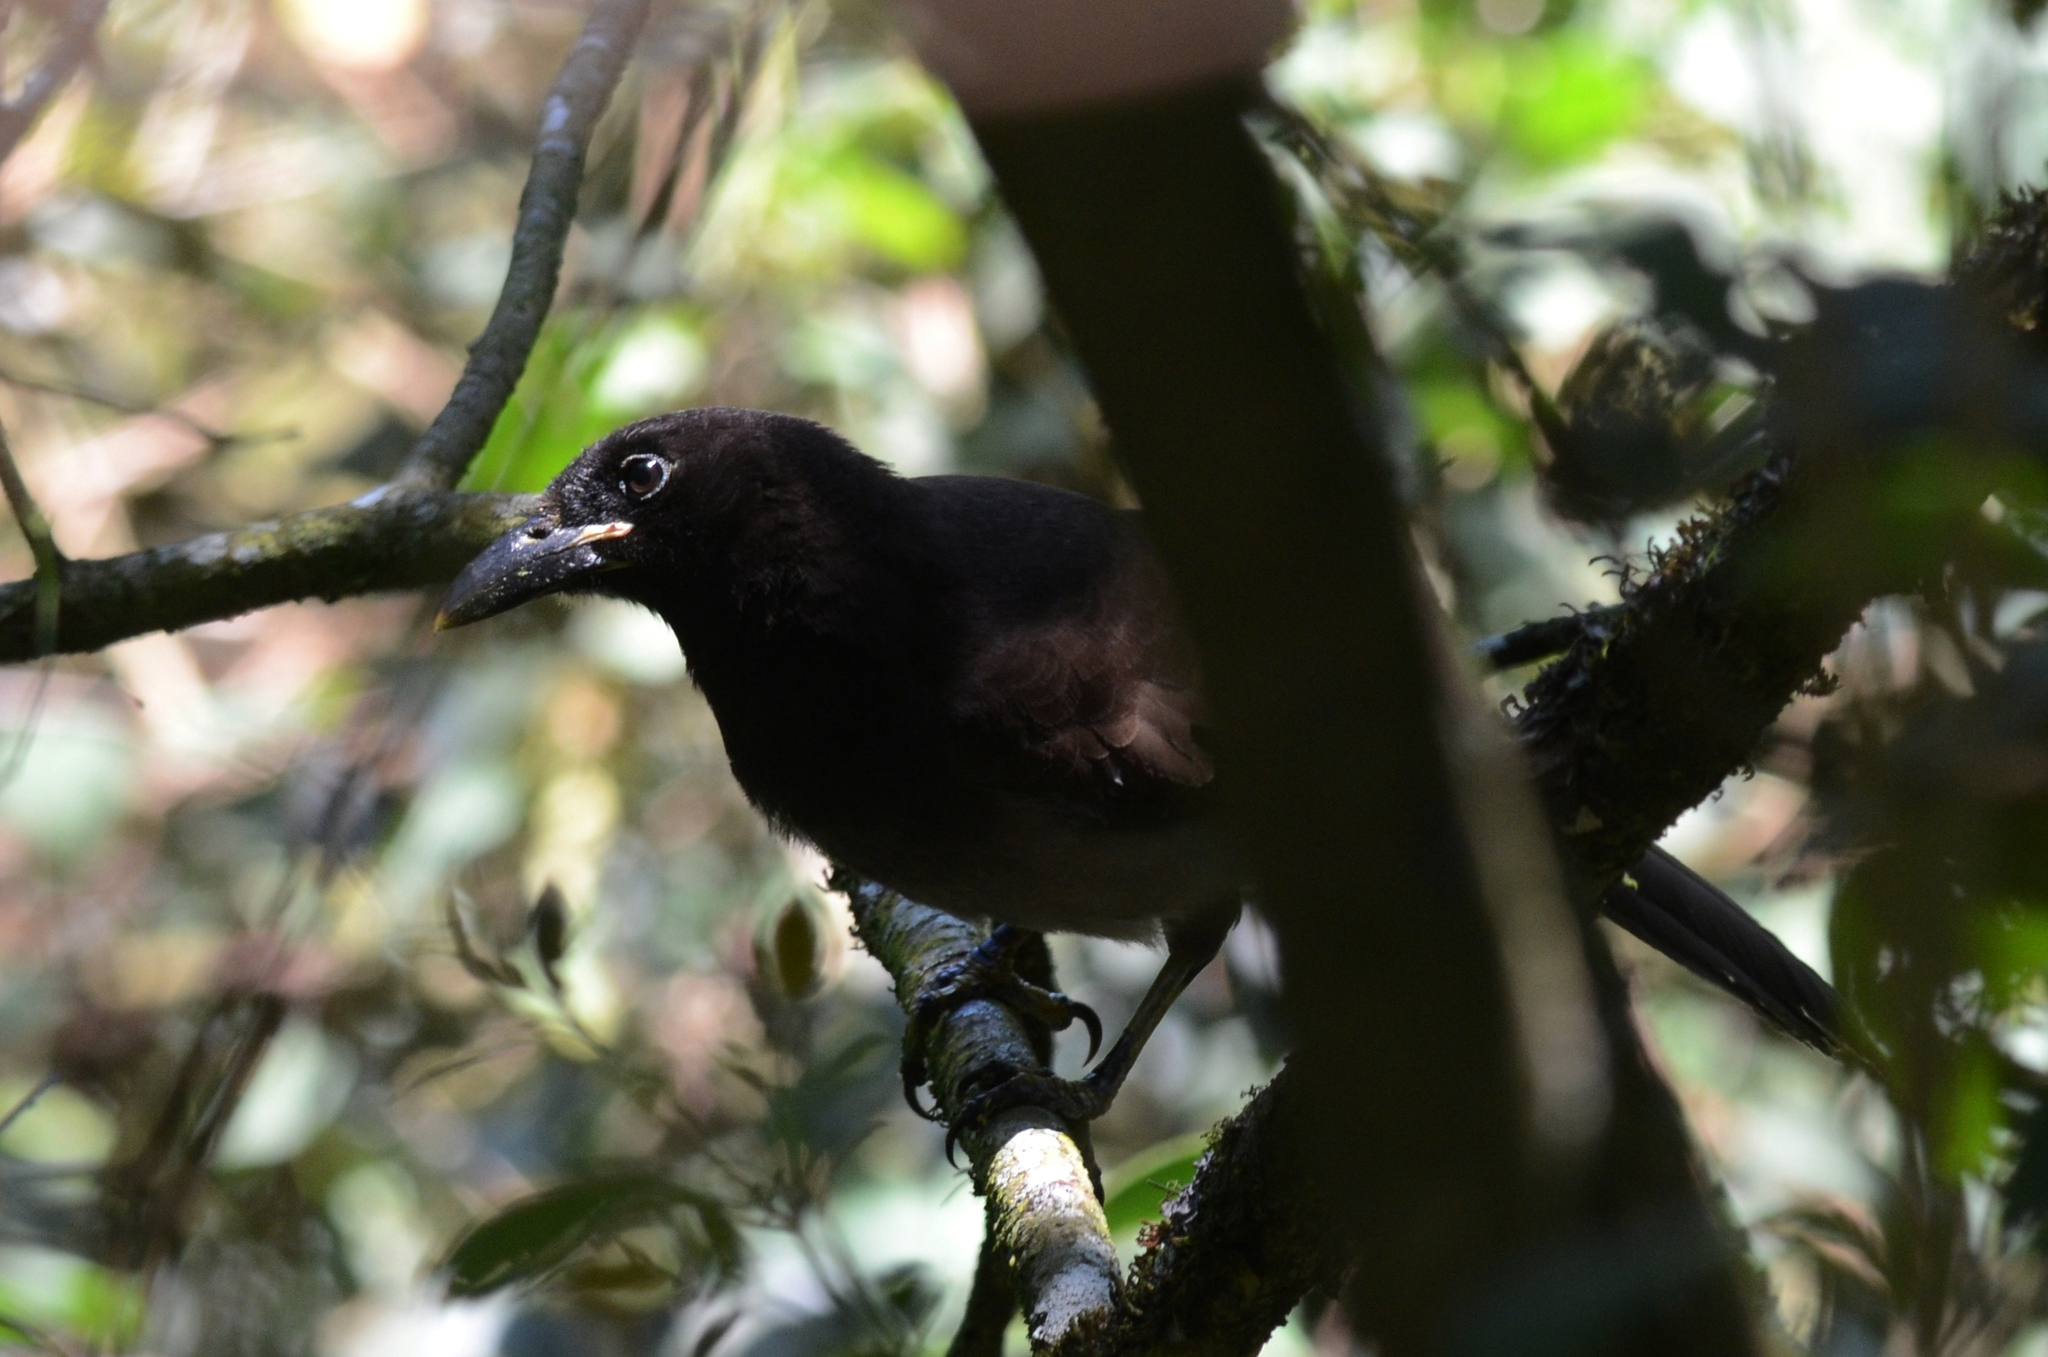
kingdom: Animalia
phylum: Chordata
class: Aves
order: Passeriformes
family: Corvidae
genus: Psilorhinus
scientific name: Psilorhinus morio
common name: Brown jay
